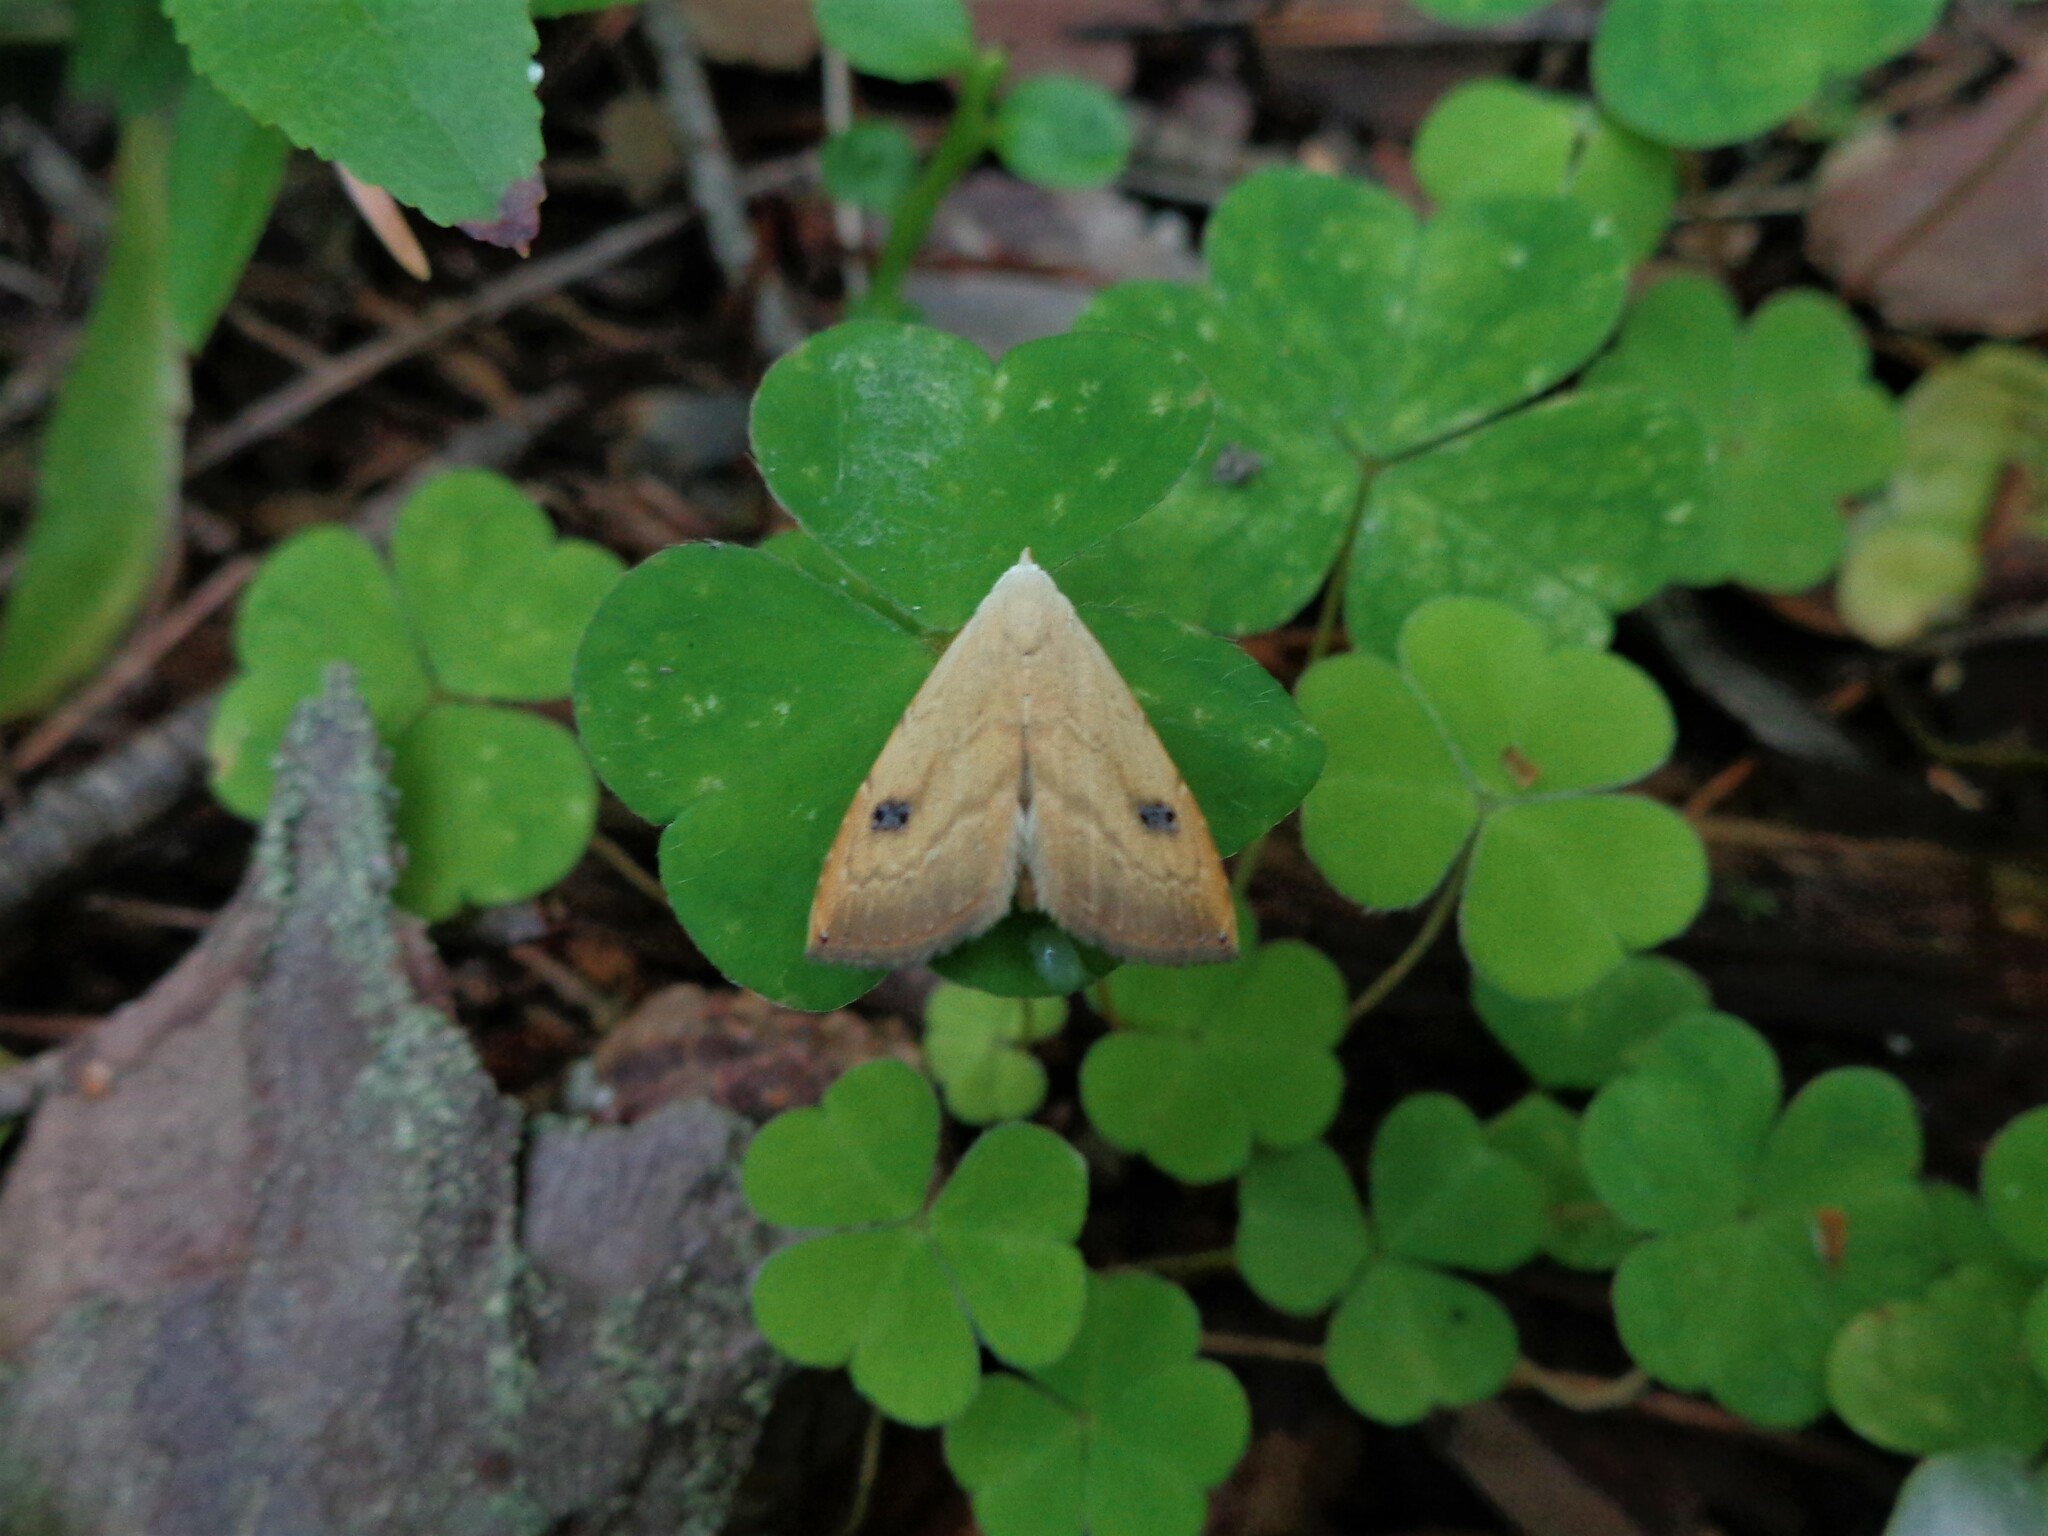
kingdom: Animalia
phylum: Arthropoda
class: Insecta
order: Lepidoptera
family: Erebidae
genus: Rivula
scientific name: Rivula sericealis
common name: Straw dot
